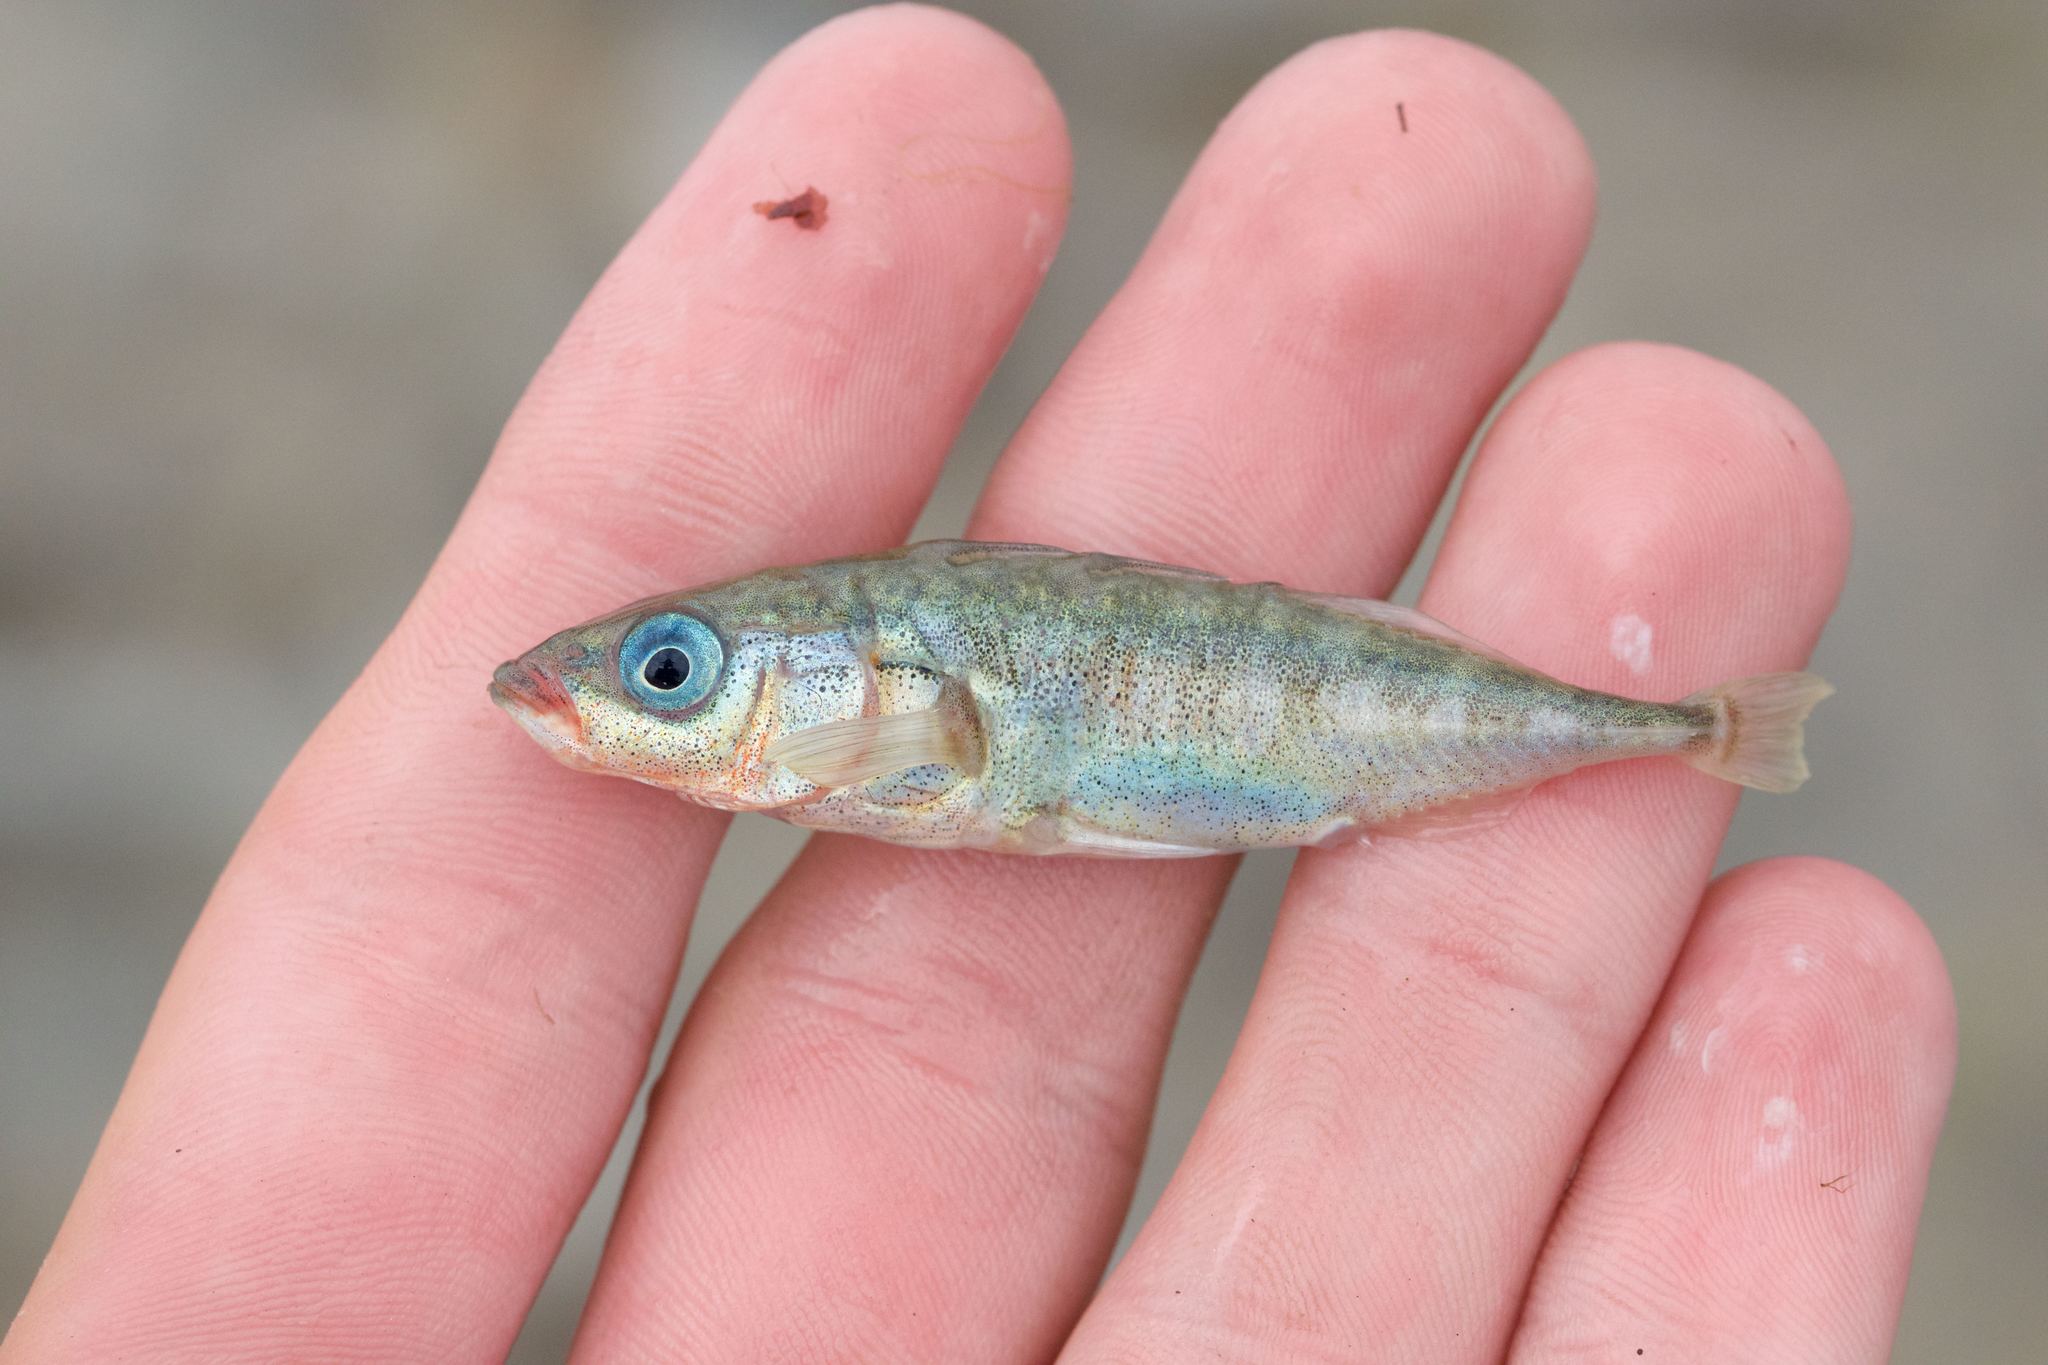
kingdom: Animalia
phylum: Chordata
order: Gasterosteiformes
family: Gasterosteidae
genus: Gasterosteus
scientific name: Gasterosteus aculeatus
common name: Three-spined stickleback
